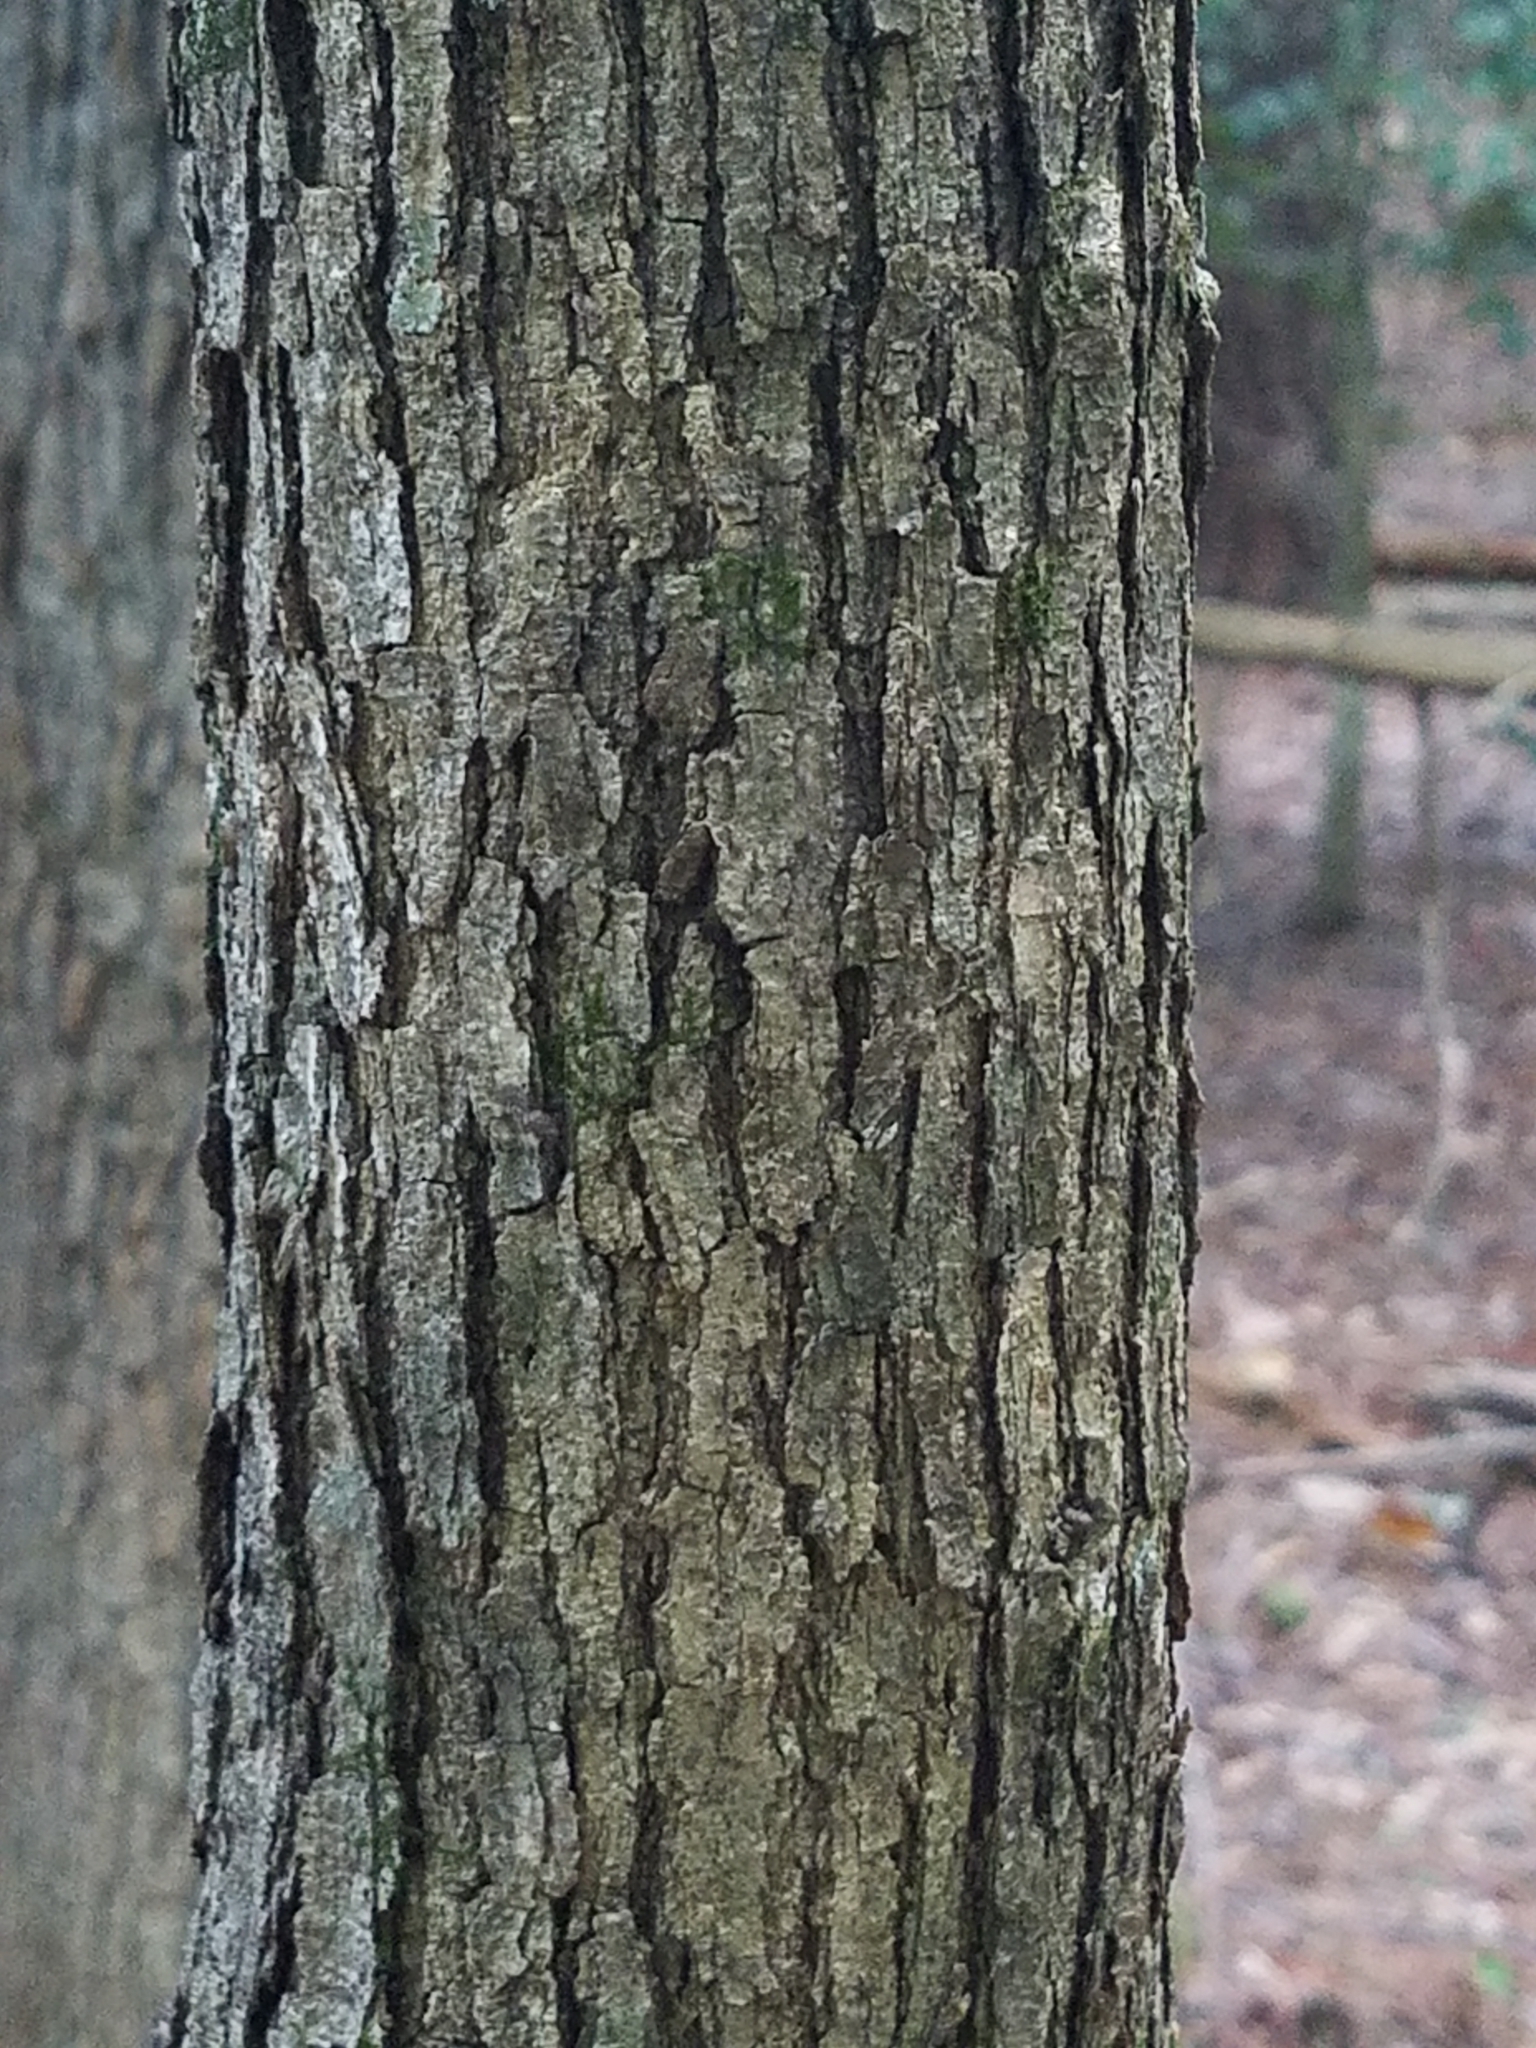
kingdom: Plantae
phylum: Tracheophyta
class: Magnoliopsida
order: Fagales
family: Fagaceae
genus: Quercus
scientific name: Quercus stellata
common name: Post oak
